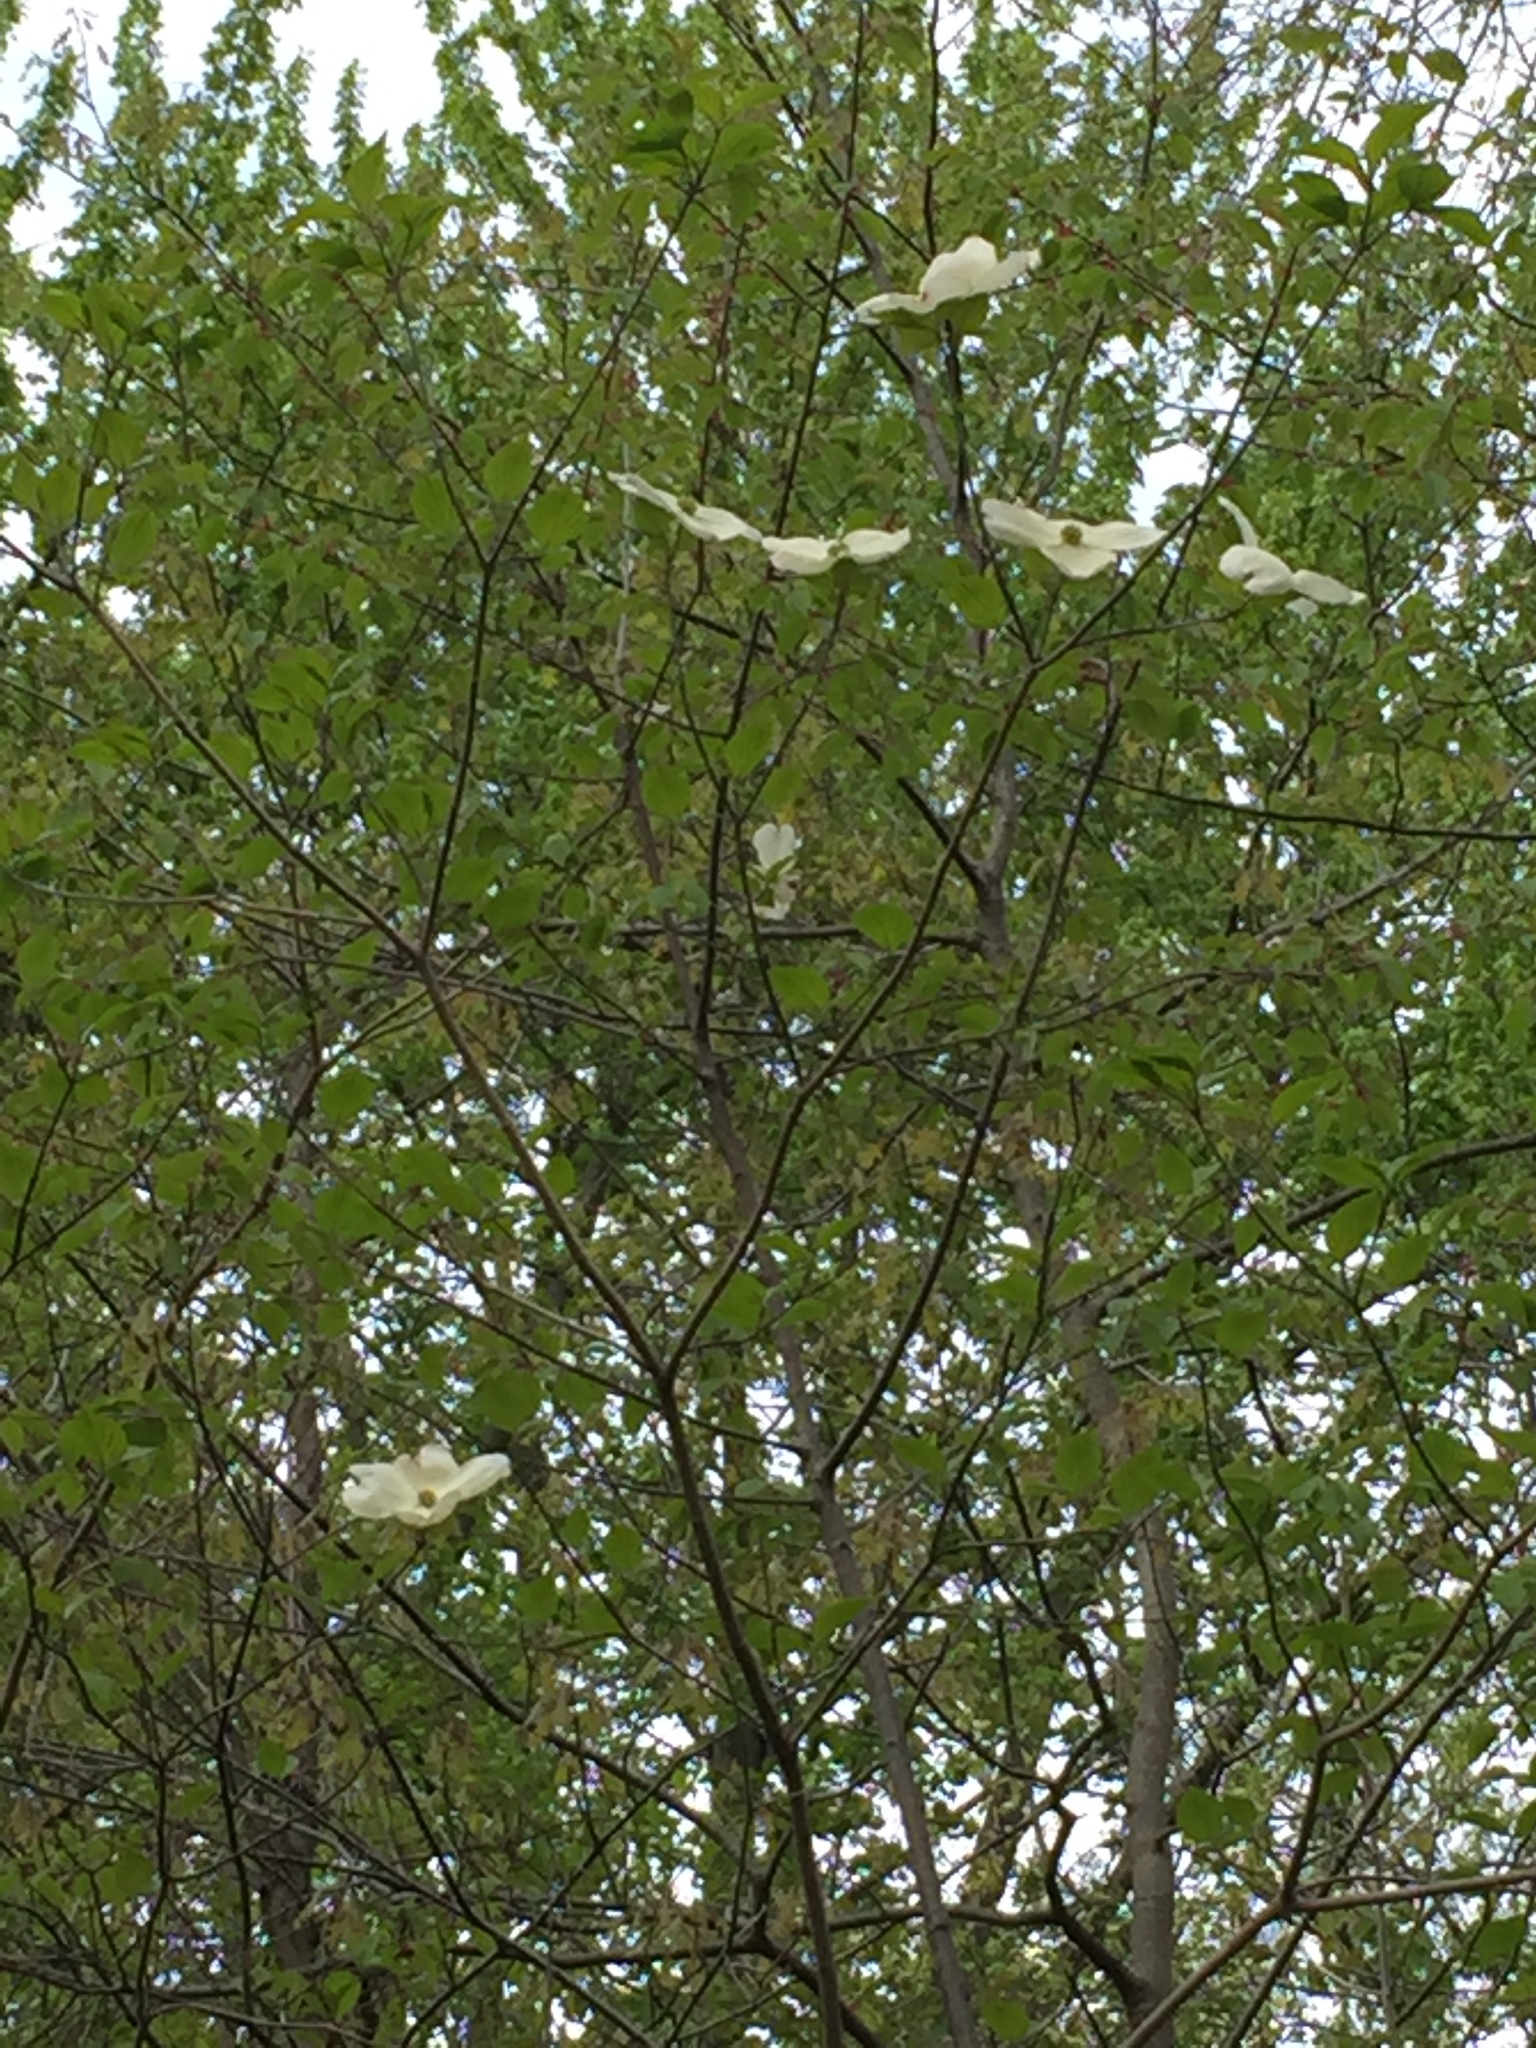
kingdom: Plantae
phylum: Tracheophyta
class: Magnoliopsida
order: Cornales
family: Cornaceae
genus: Cornus
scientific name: Cornus florida
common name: Flowering dogwood
